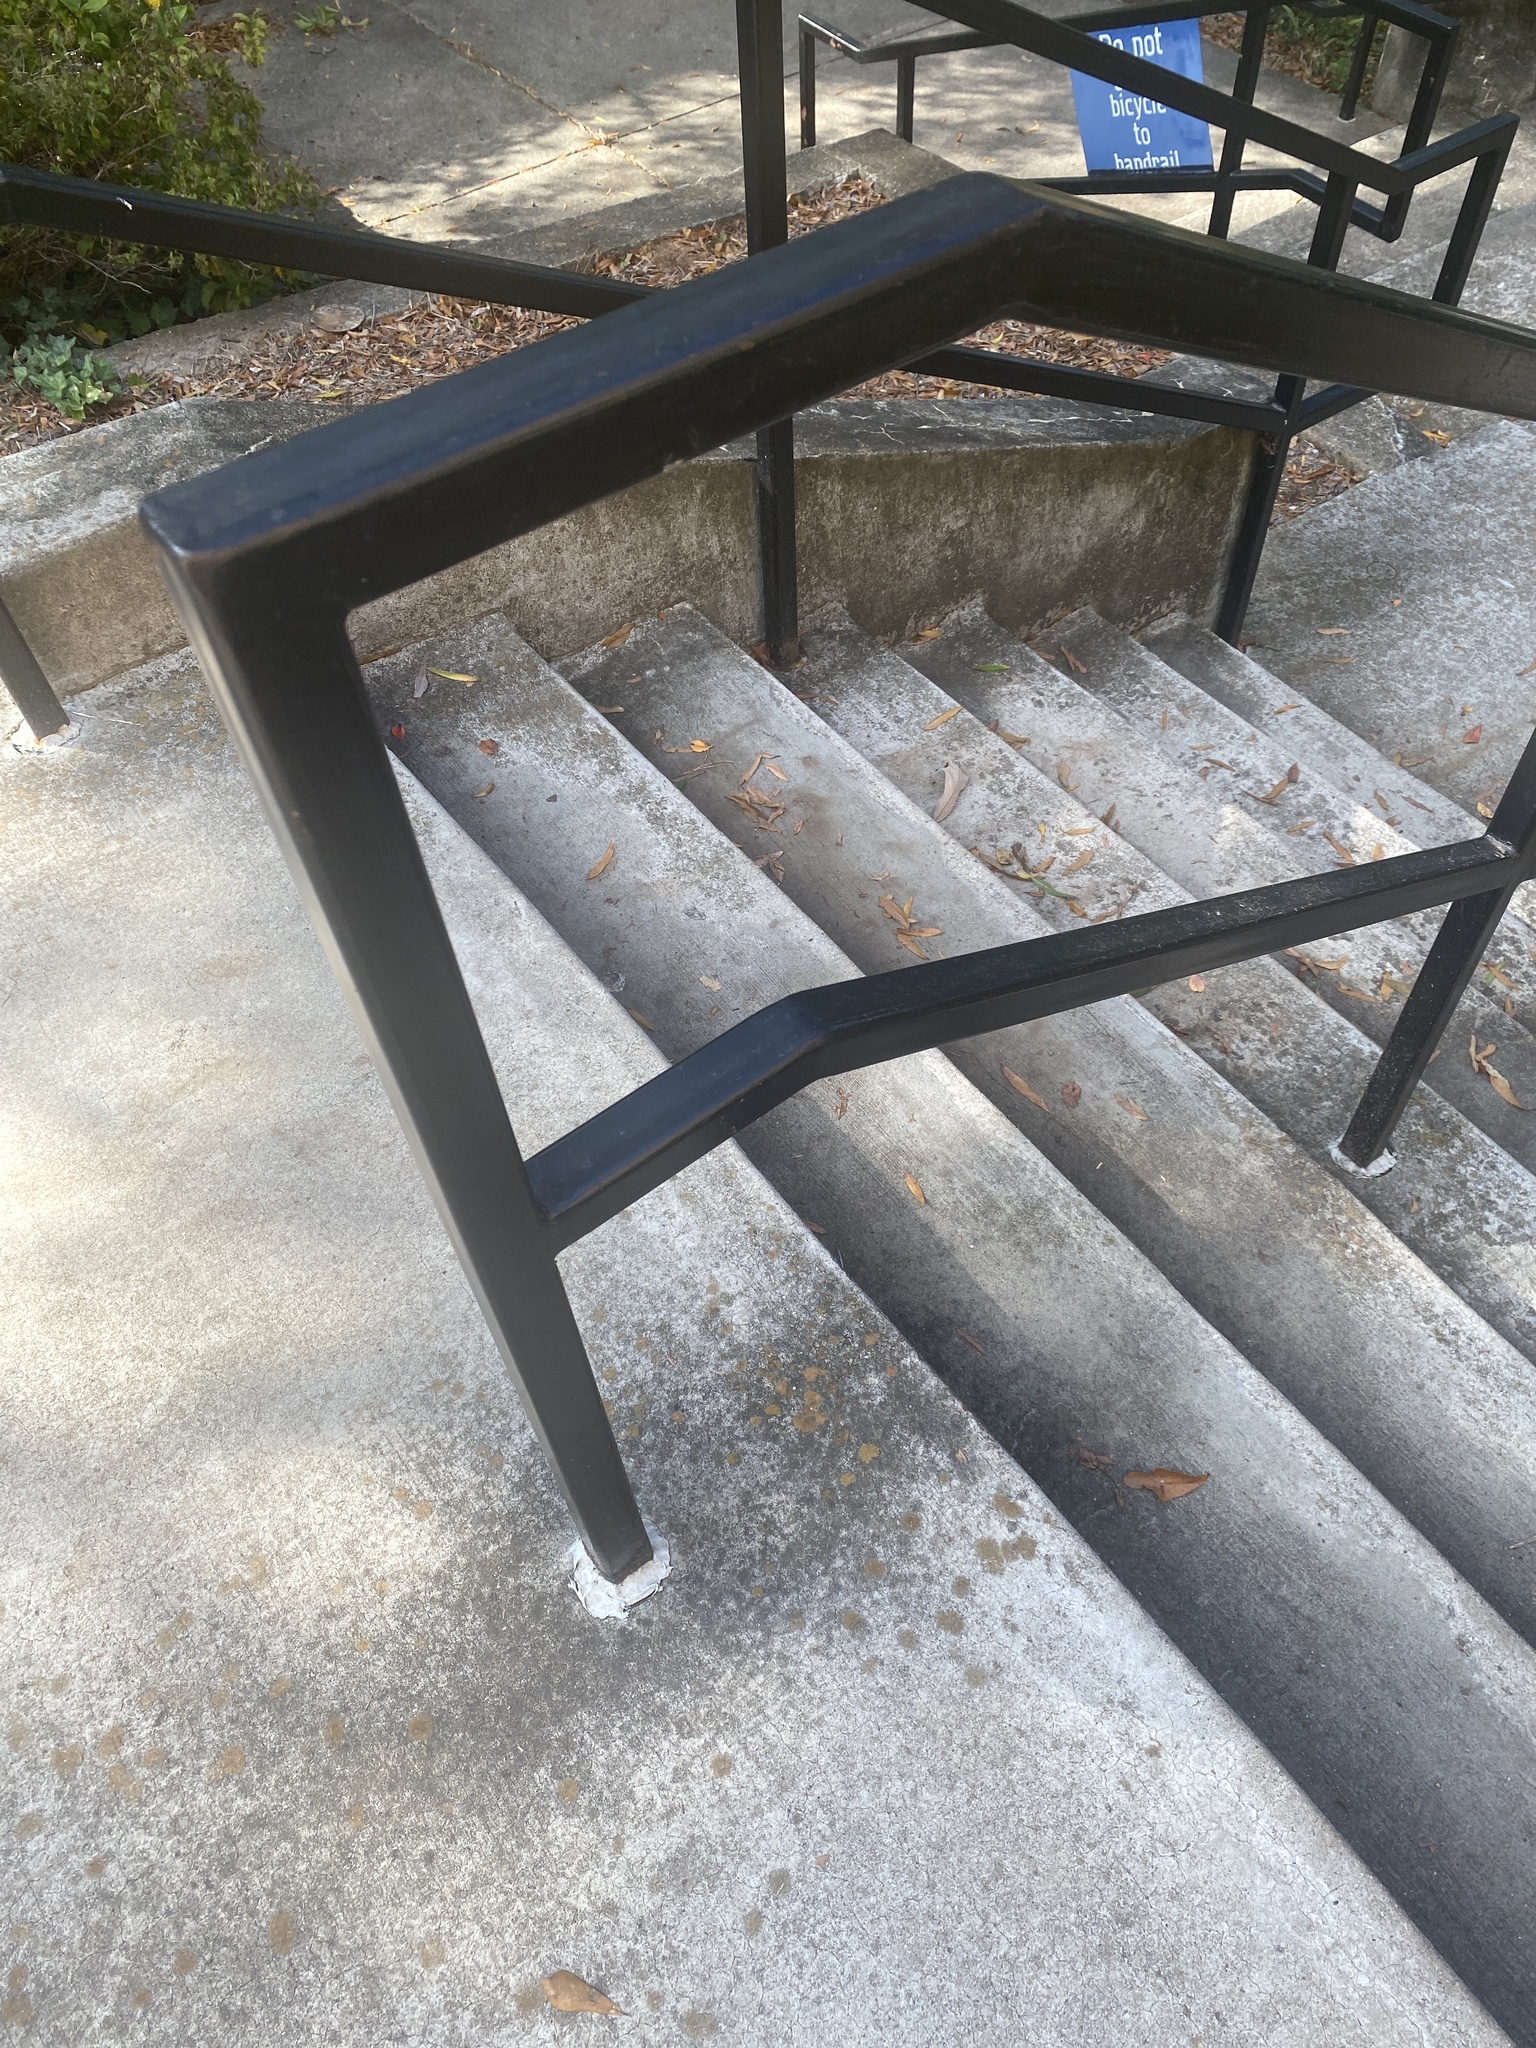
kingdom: Fungi
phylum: Ascomycota
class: Lecanoromycetes
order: Teloschistales
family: Teloschistaceae
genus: Gyalolechia
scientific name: Gyalolechia flavovirescens
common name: Sulphur firedot
